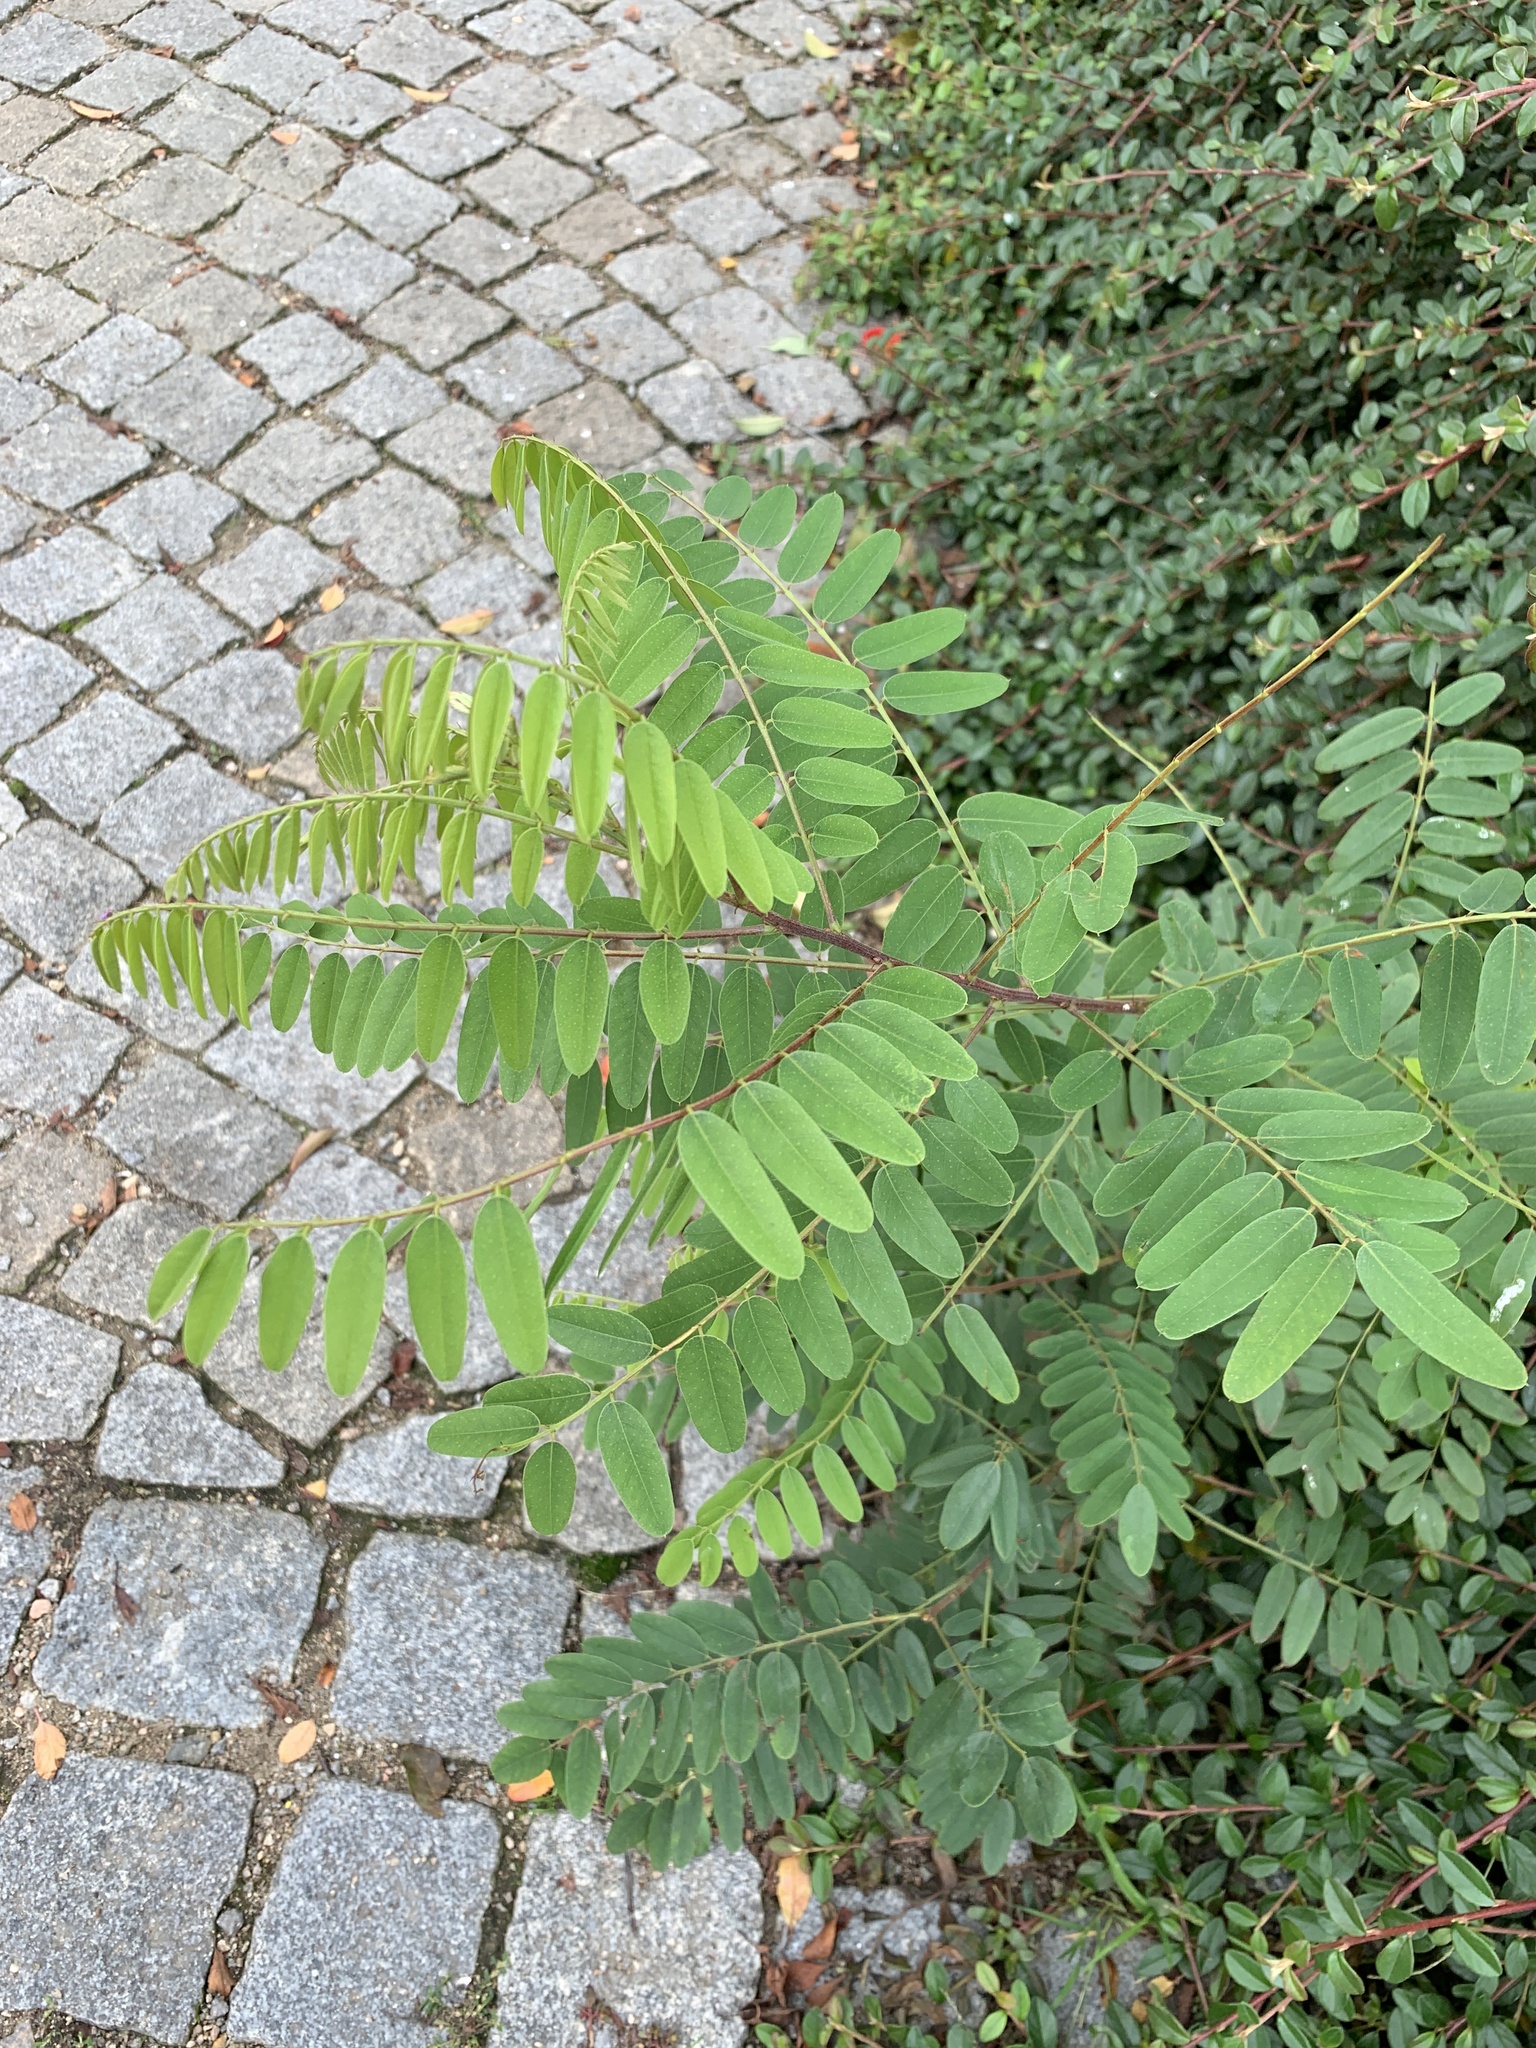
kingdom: Plantae
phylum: Tracheophyta
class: Magnoliopsida
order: Fabales
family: Fabaceae
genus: Robinia
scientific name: Robinia pseudoacacia
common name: Black locust
